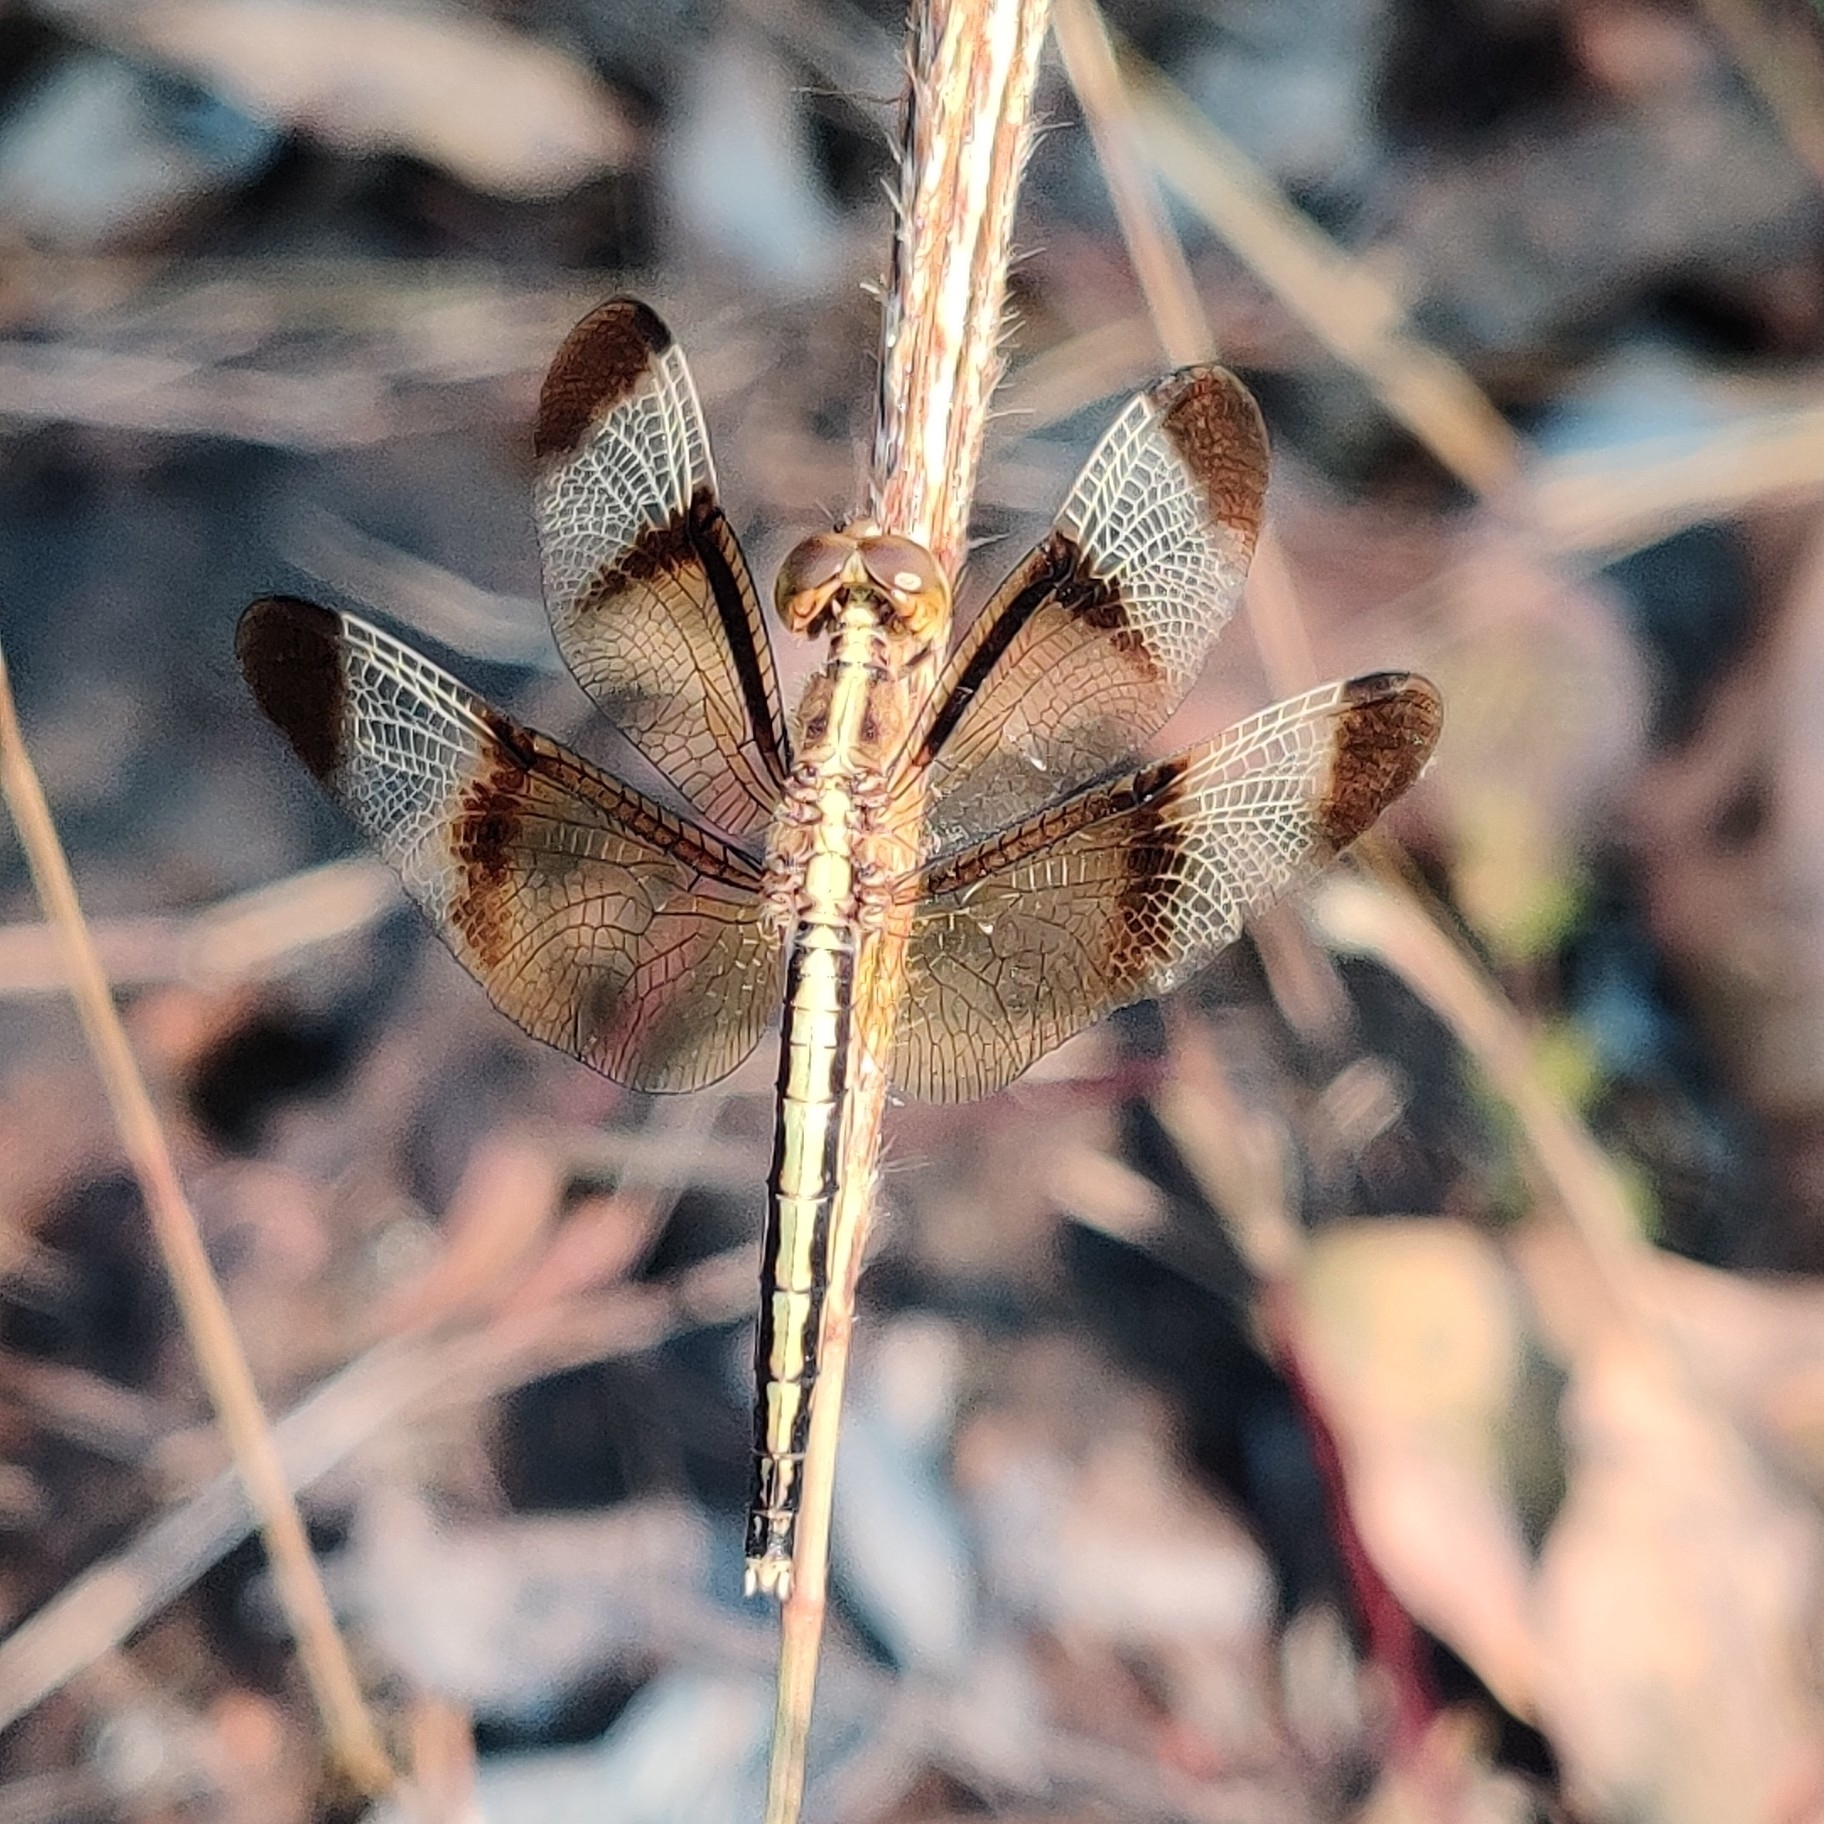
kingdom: Animalia
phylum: Arthropoda
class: Insecta
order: Odonata
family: Libellulidae
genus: Neurothemis
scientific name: Neurothemis tullia
